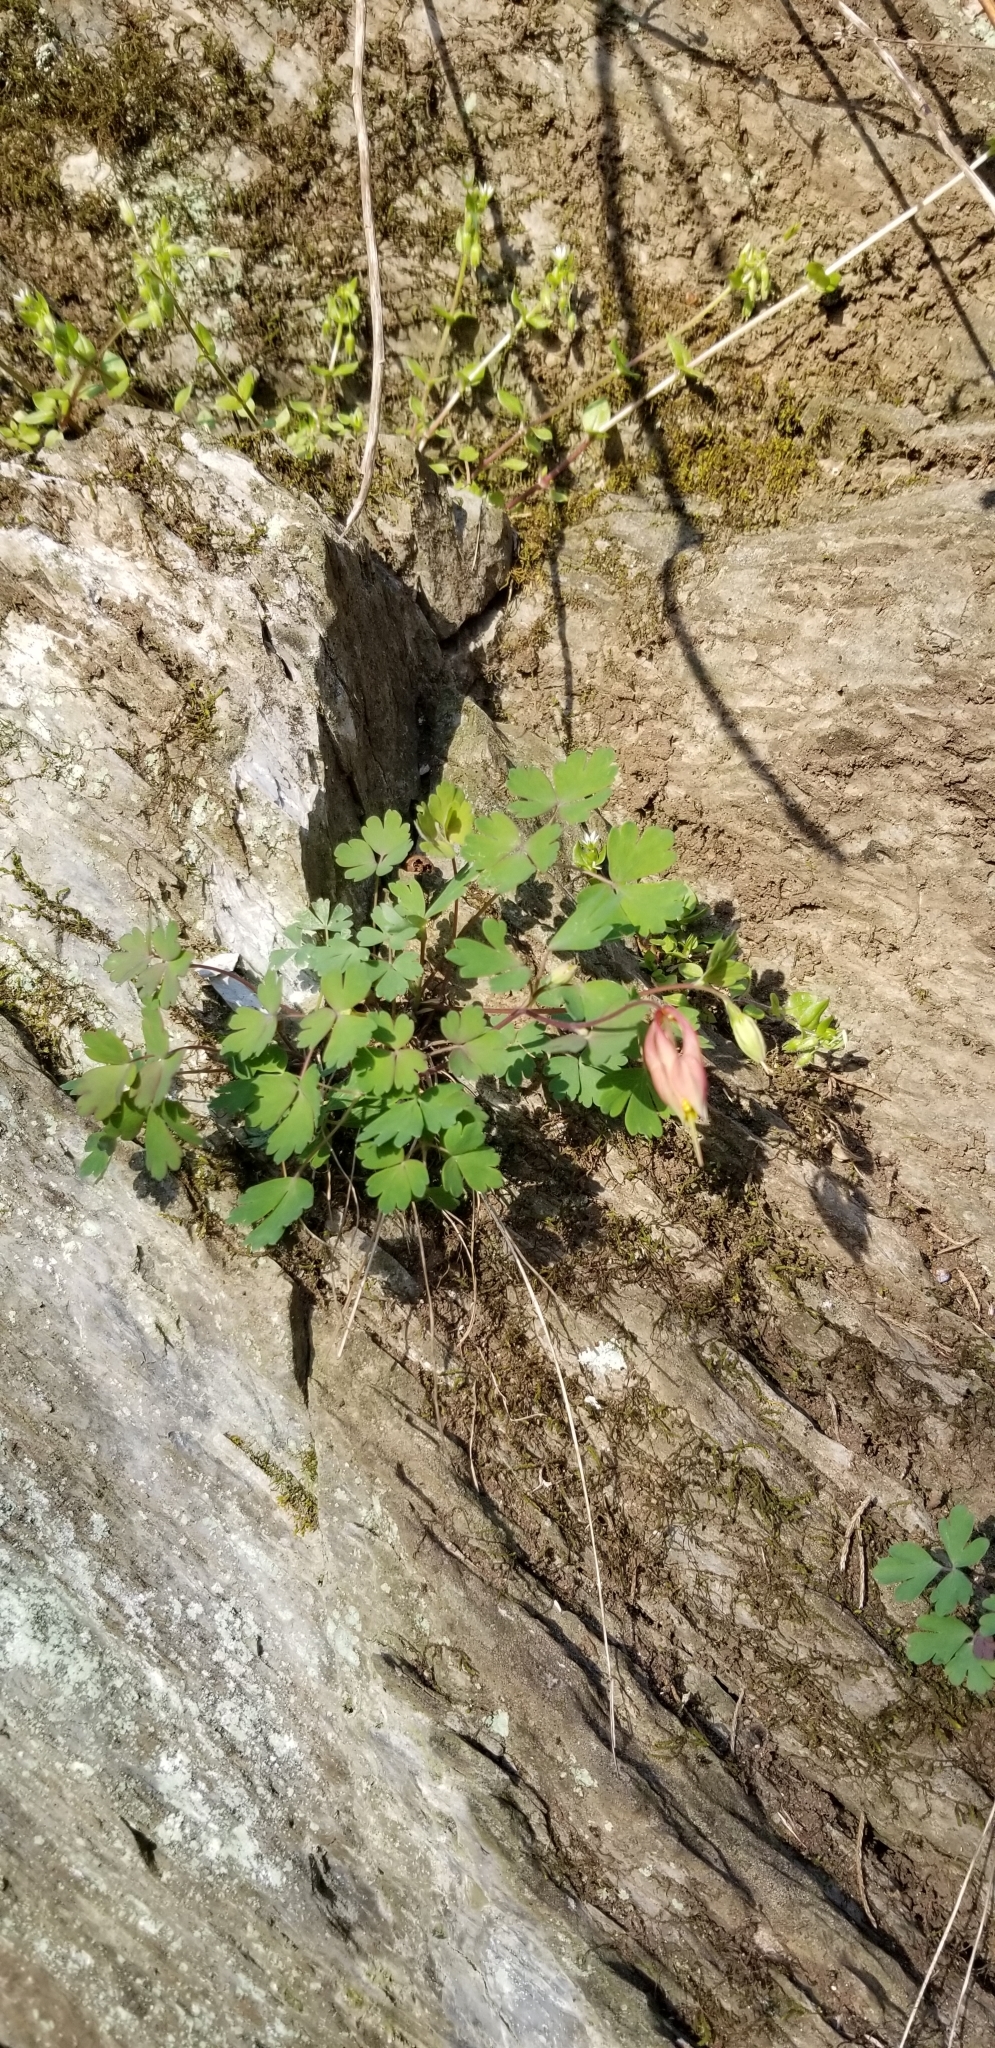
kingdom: Plantae
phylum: Tracheophyta
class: Magnoliopsida
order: Ranunculales
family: Ranunculaceae
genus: Aquilegia
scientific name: Aquilegia canadensis
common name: American columbine
